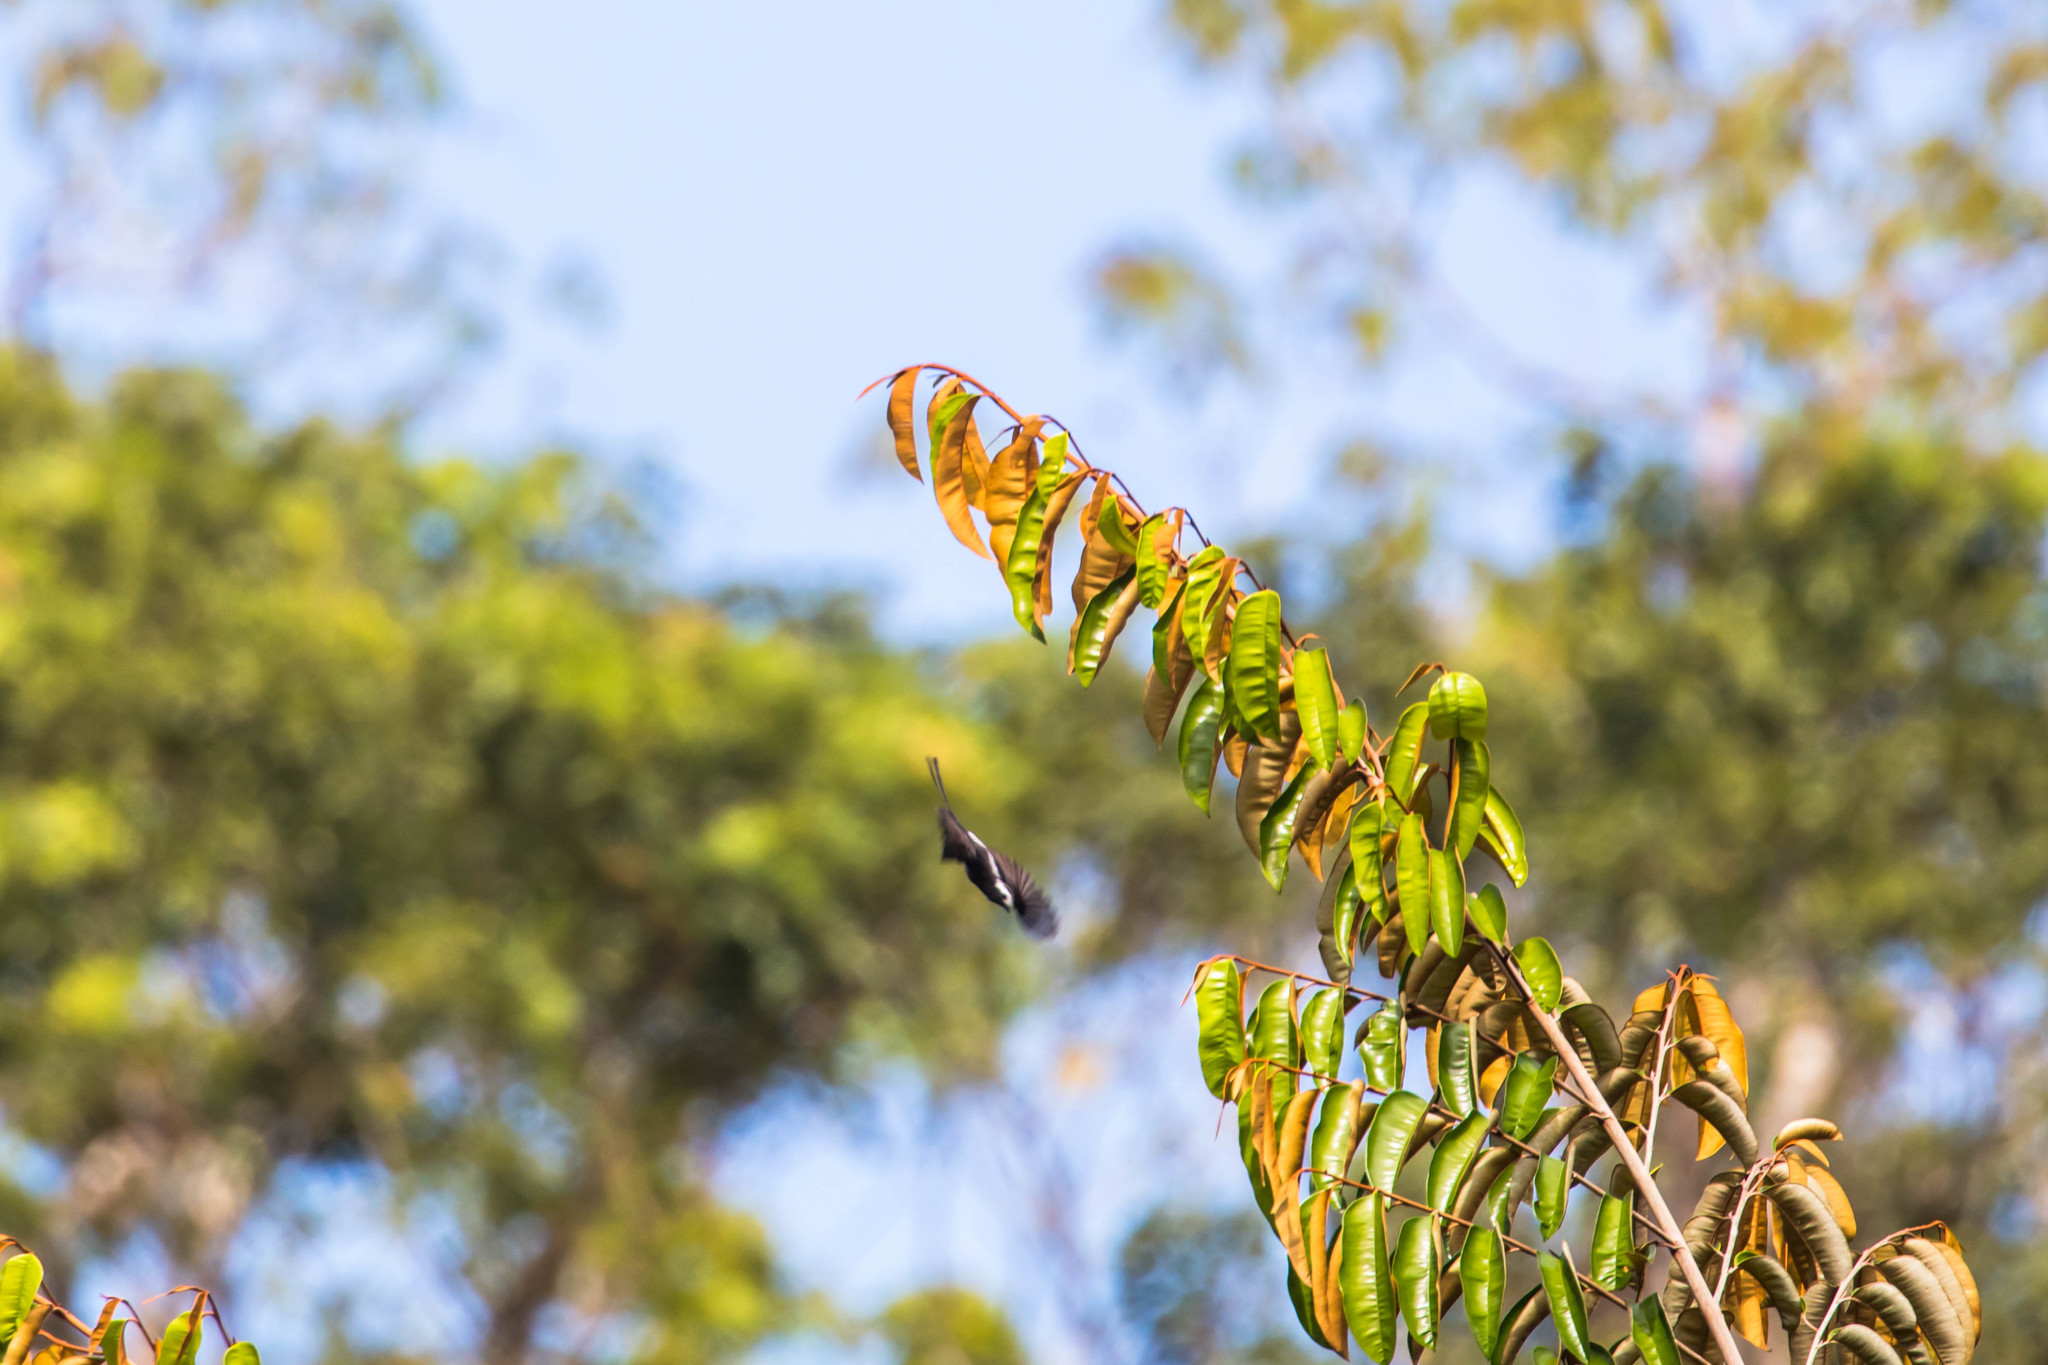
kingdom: Animalia
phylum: Chordata
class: Aves
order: Passeriformes
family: Tyrannidae
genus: Colonia
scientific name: Colonia colonus
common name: Long-tailed tyrant
